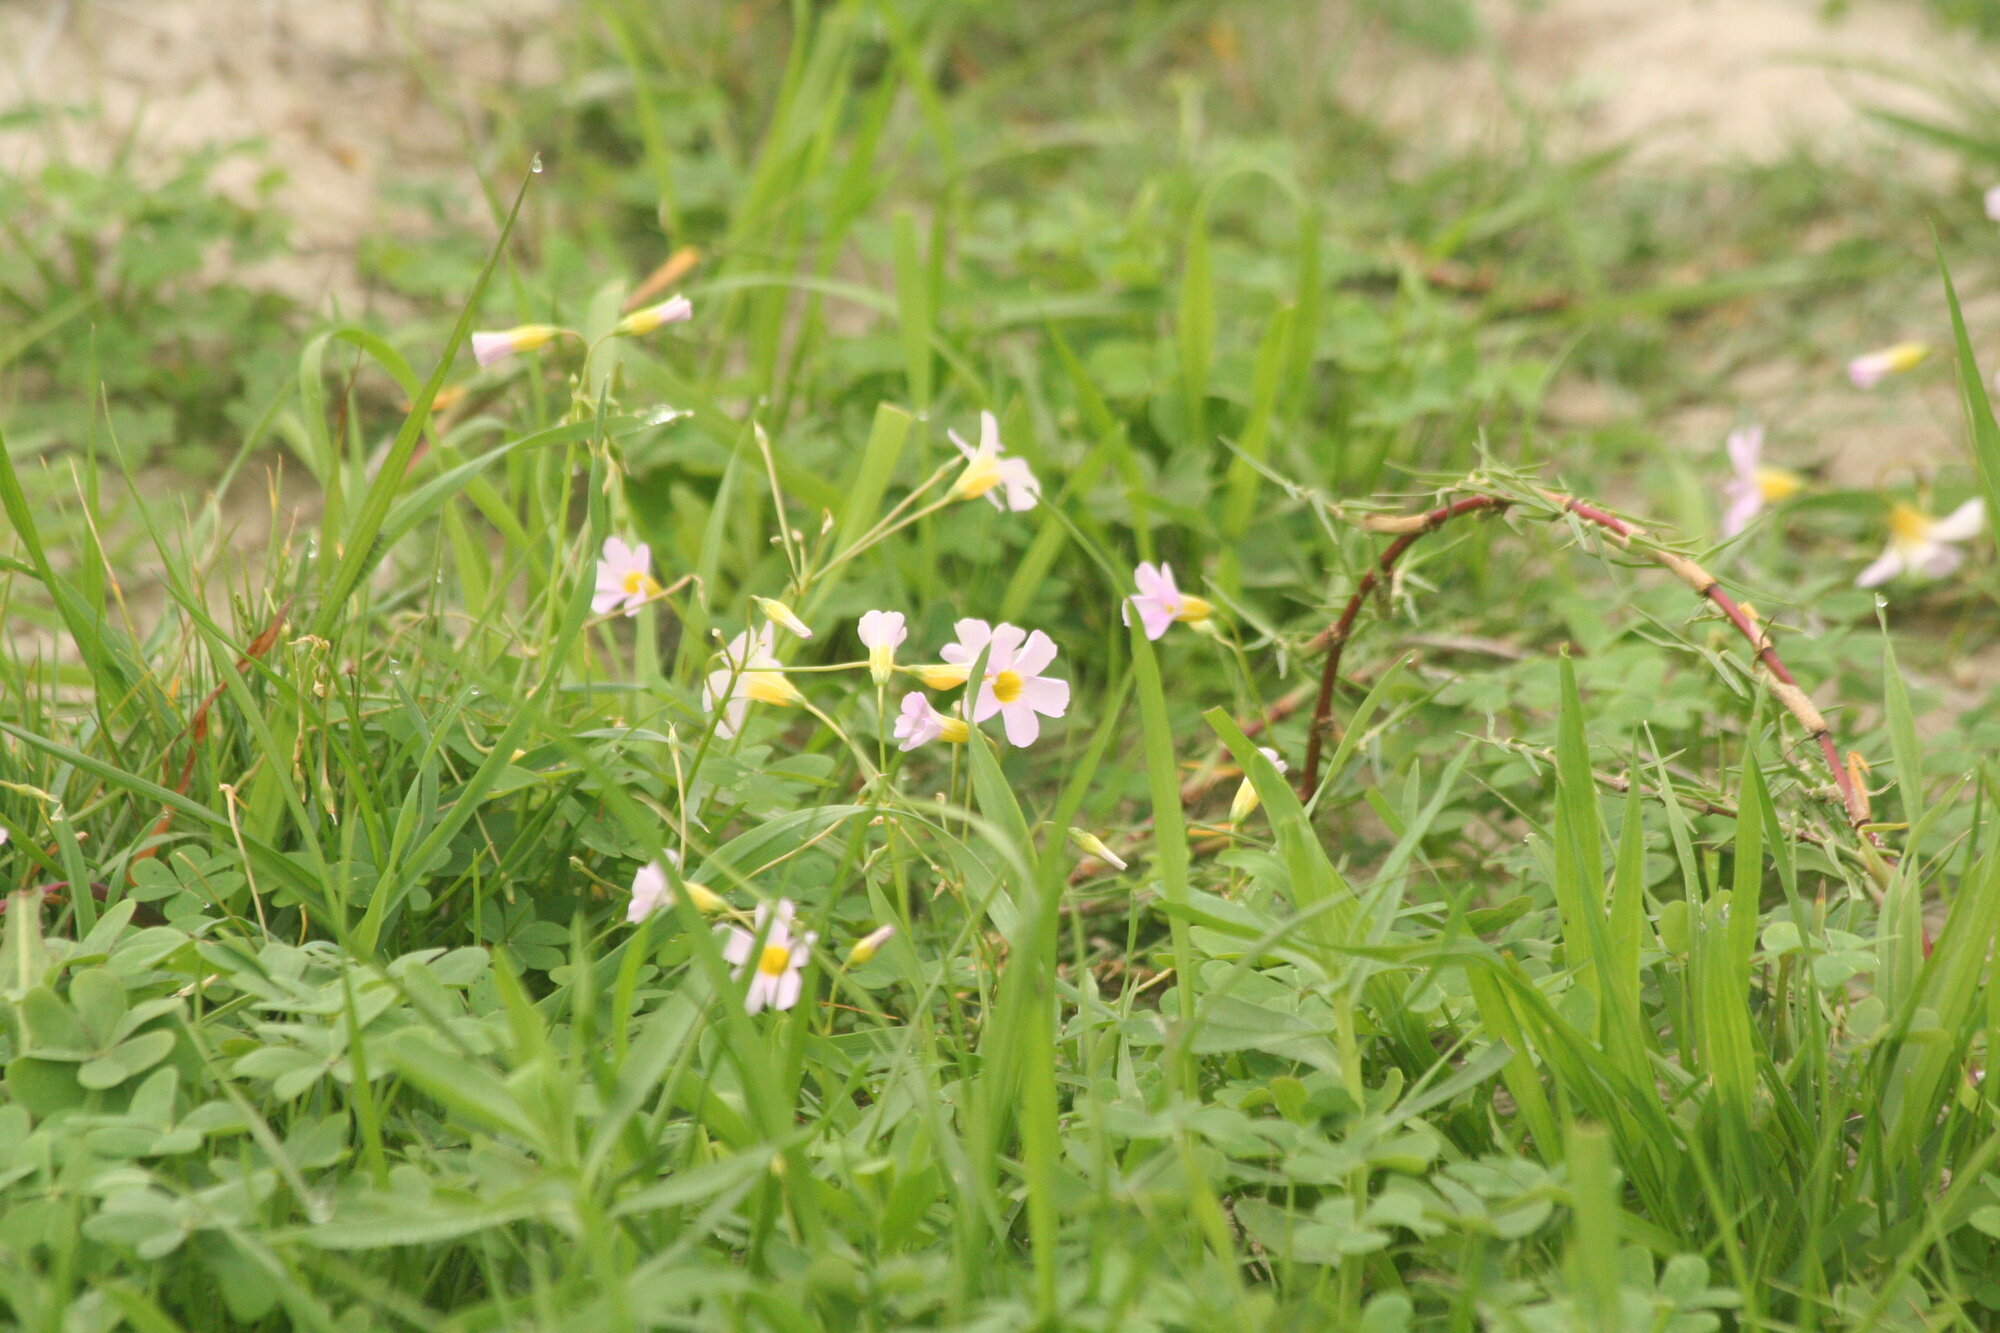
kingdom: Plantae
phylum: Tracheophyta
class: Magnoliopsida
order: Oxalidales
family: Oxalidaceae
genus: Oxalis
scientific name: Oxalis caprina
